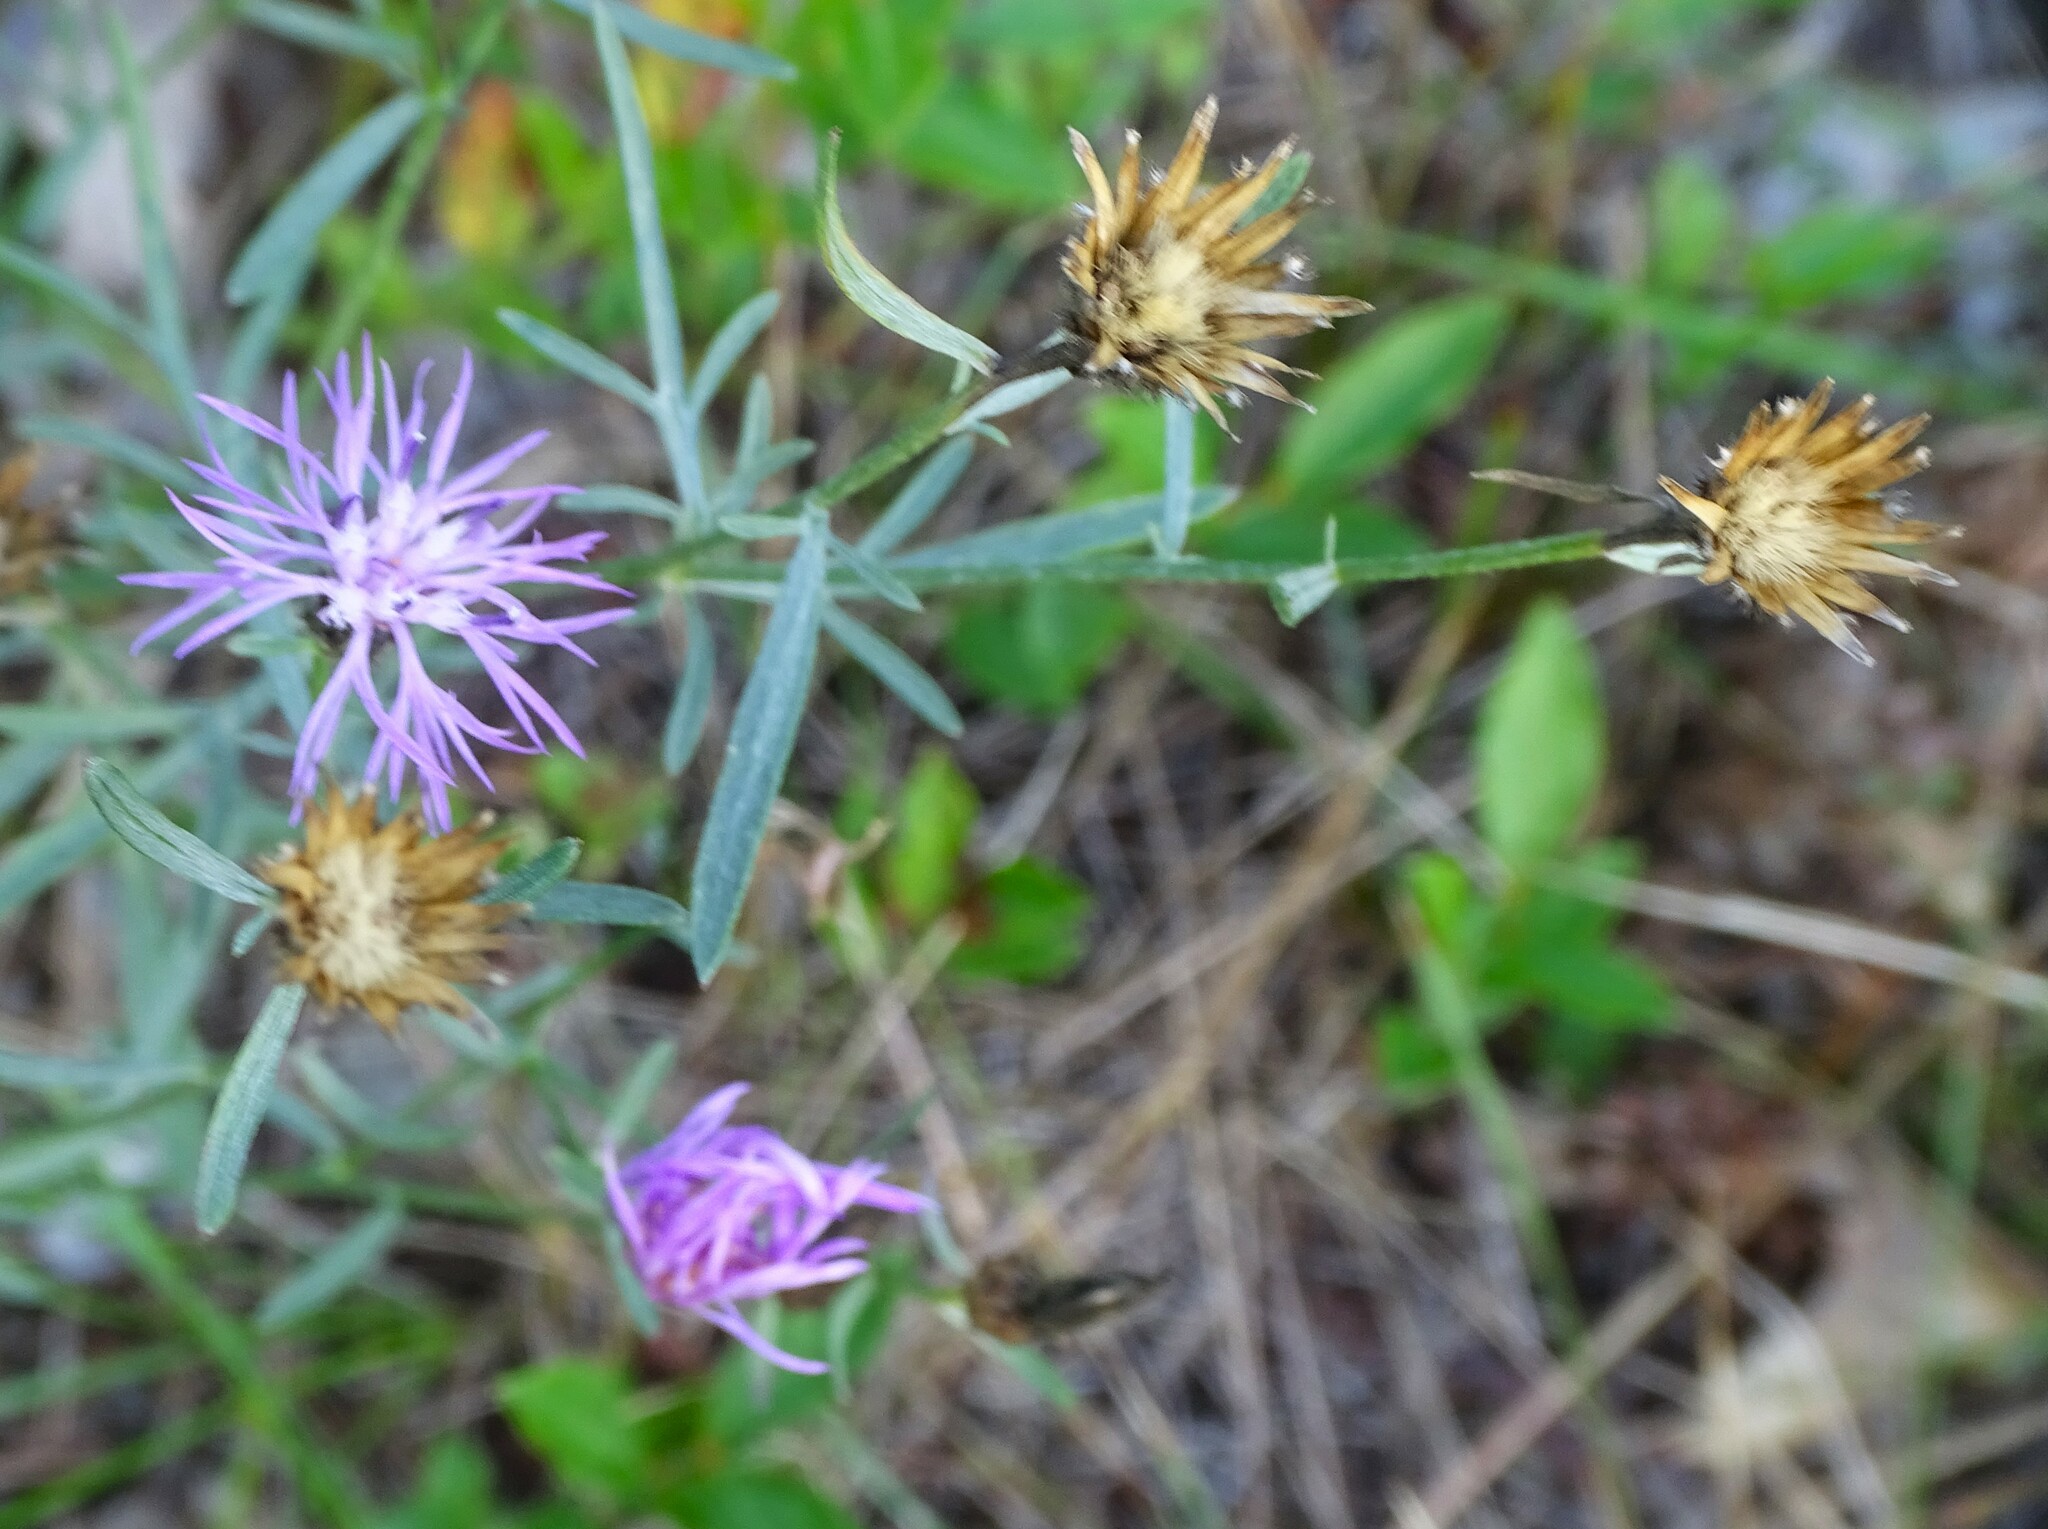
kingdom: Plantae
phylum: Tracheophyta
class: Magnoliopsida
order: Asterales
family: Asteraceae
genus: Centaurea
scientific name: Centaurea stoebe
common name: Spotted knapweed
